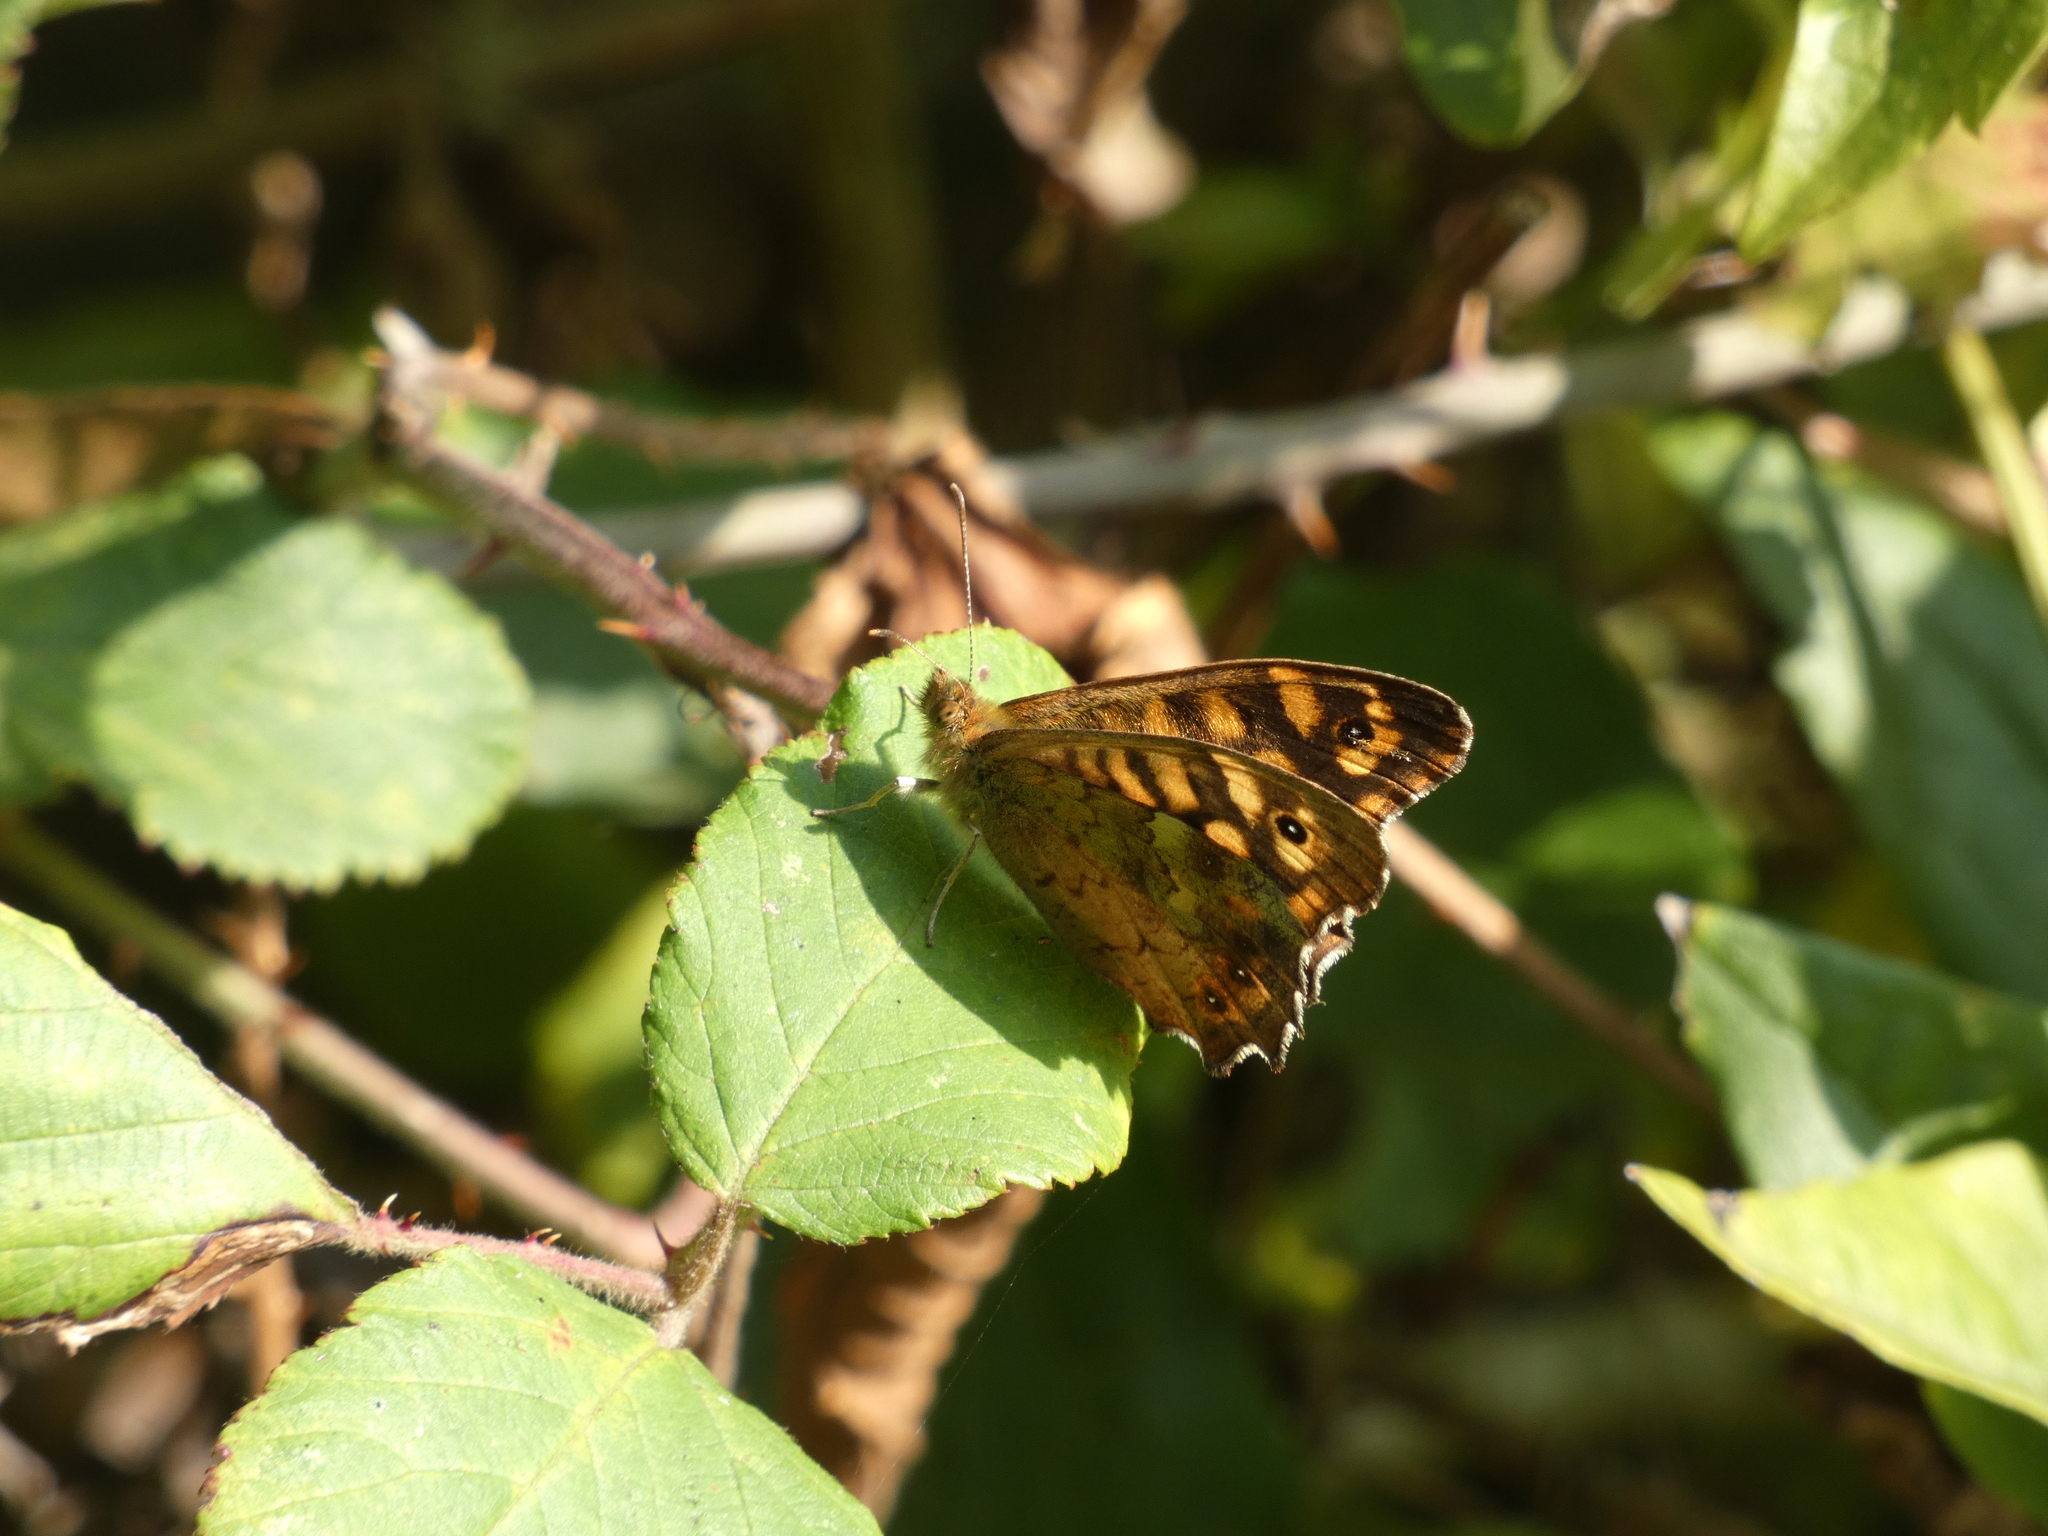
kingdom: Animalia
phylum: Arthropoda
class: Insecta
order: Lepidoptera
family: Nymphalidae
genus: Pararge
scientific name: Pararge aegeria
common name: Speckled wood
